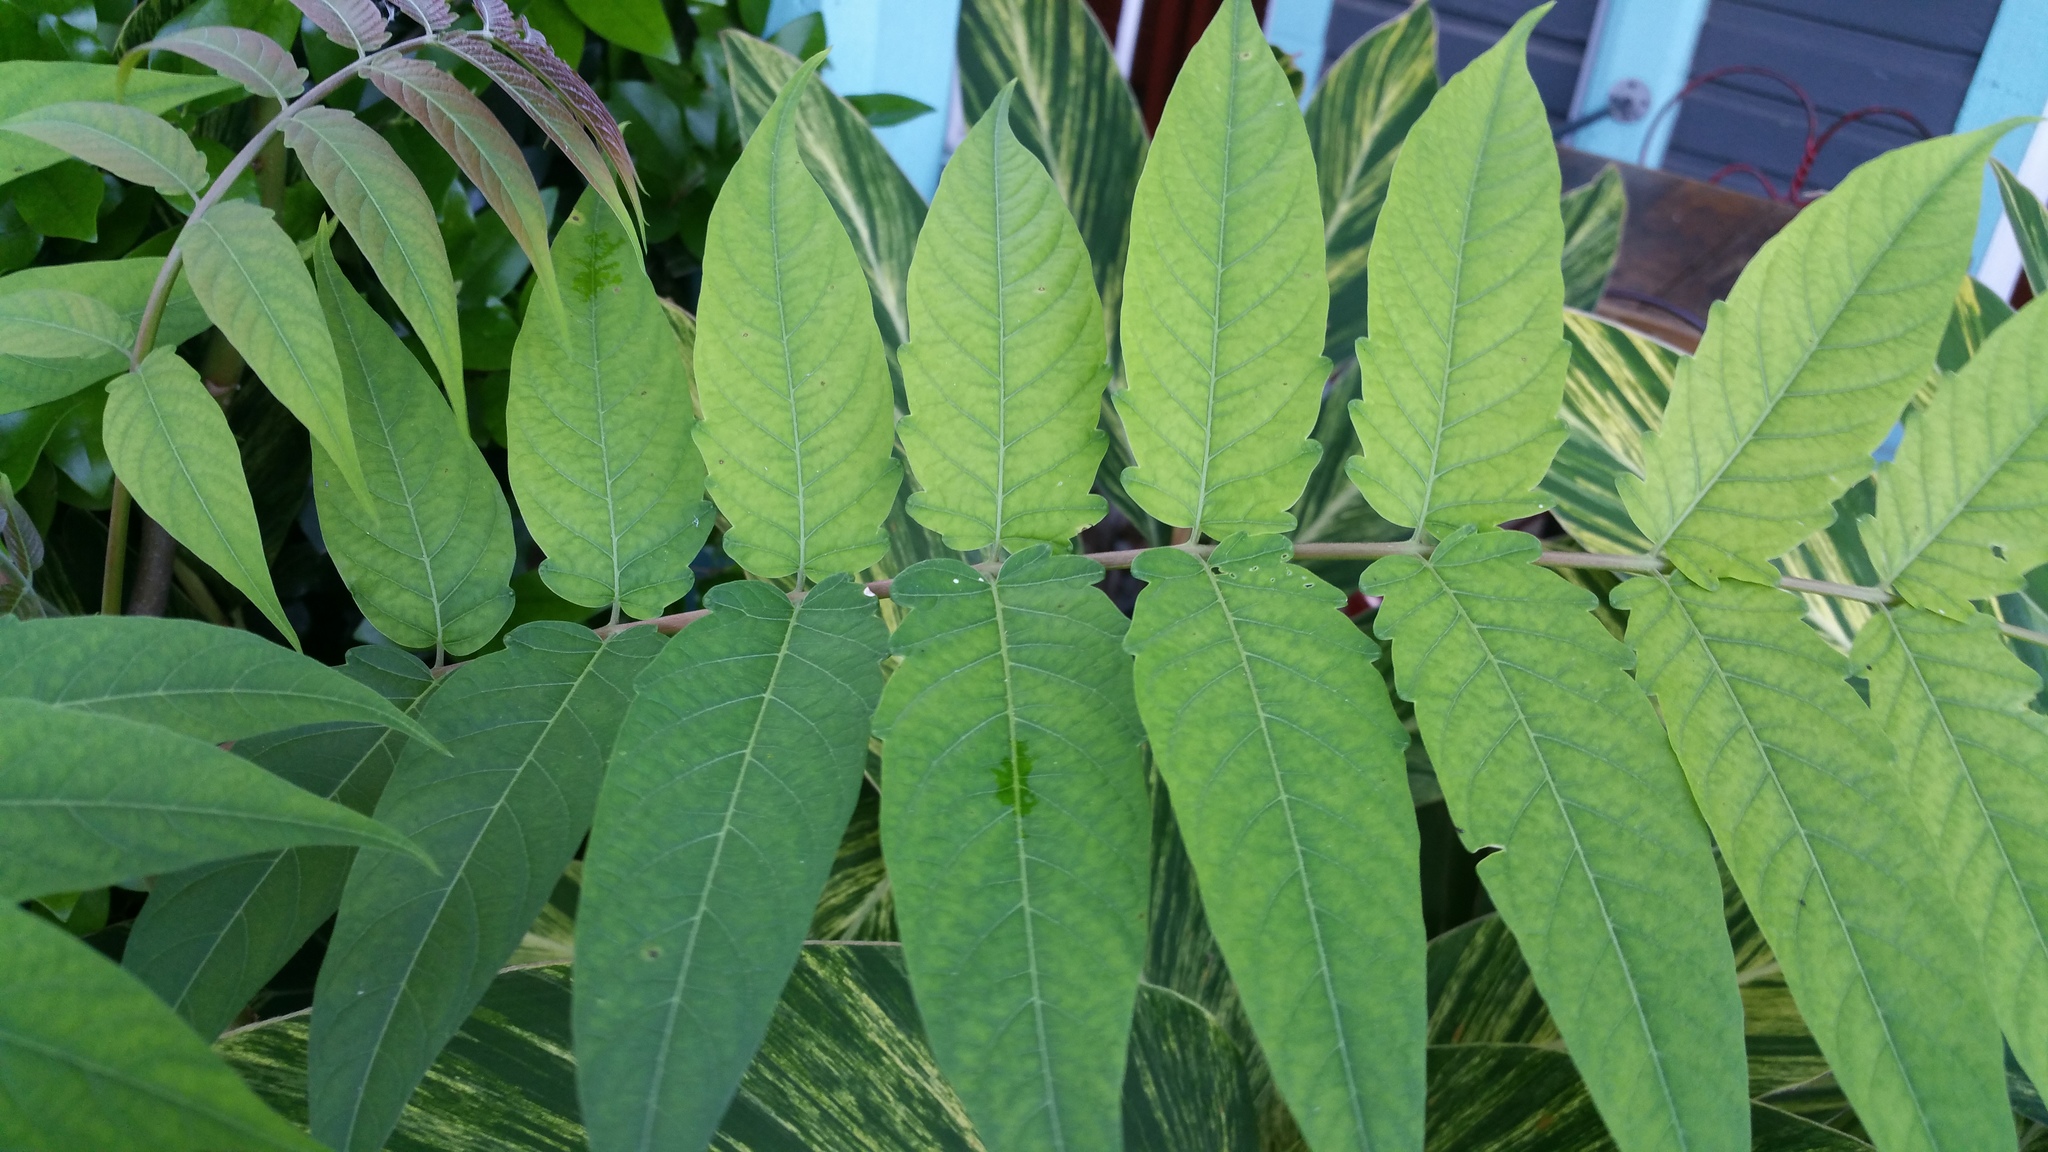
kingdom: Plantae
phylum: Tracheophyta
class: Magnoliopsida
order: Sapindales
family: Simaroubaceae
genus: Ailanthus
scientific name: Ailanthus altissima
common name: Tree-of-heaven
